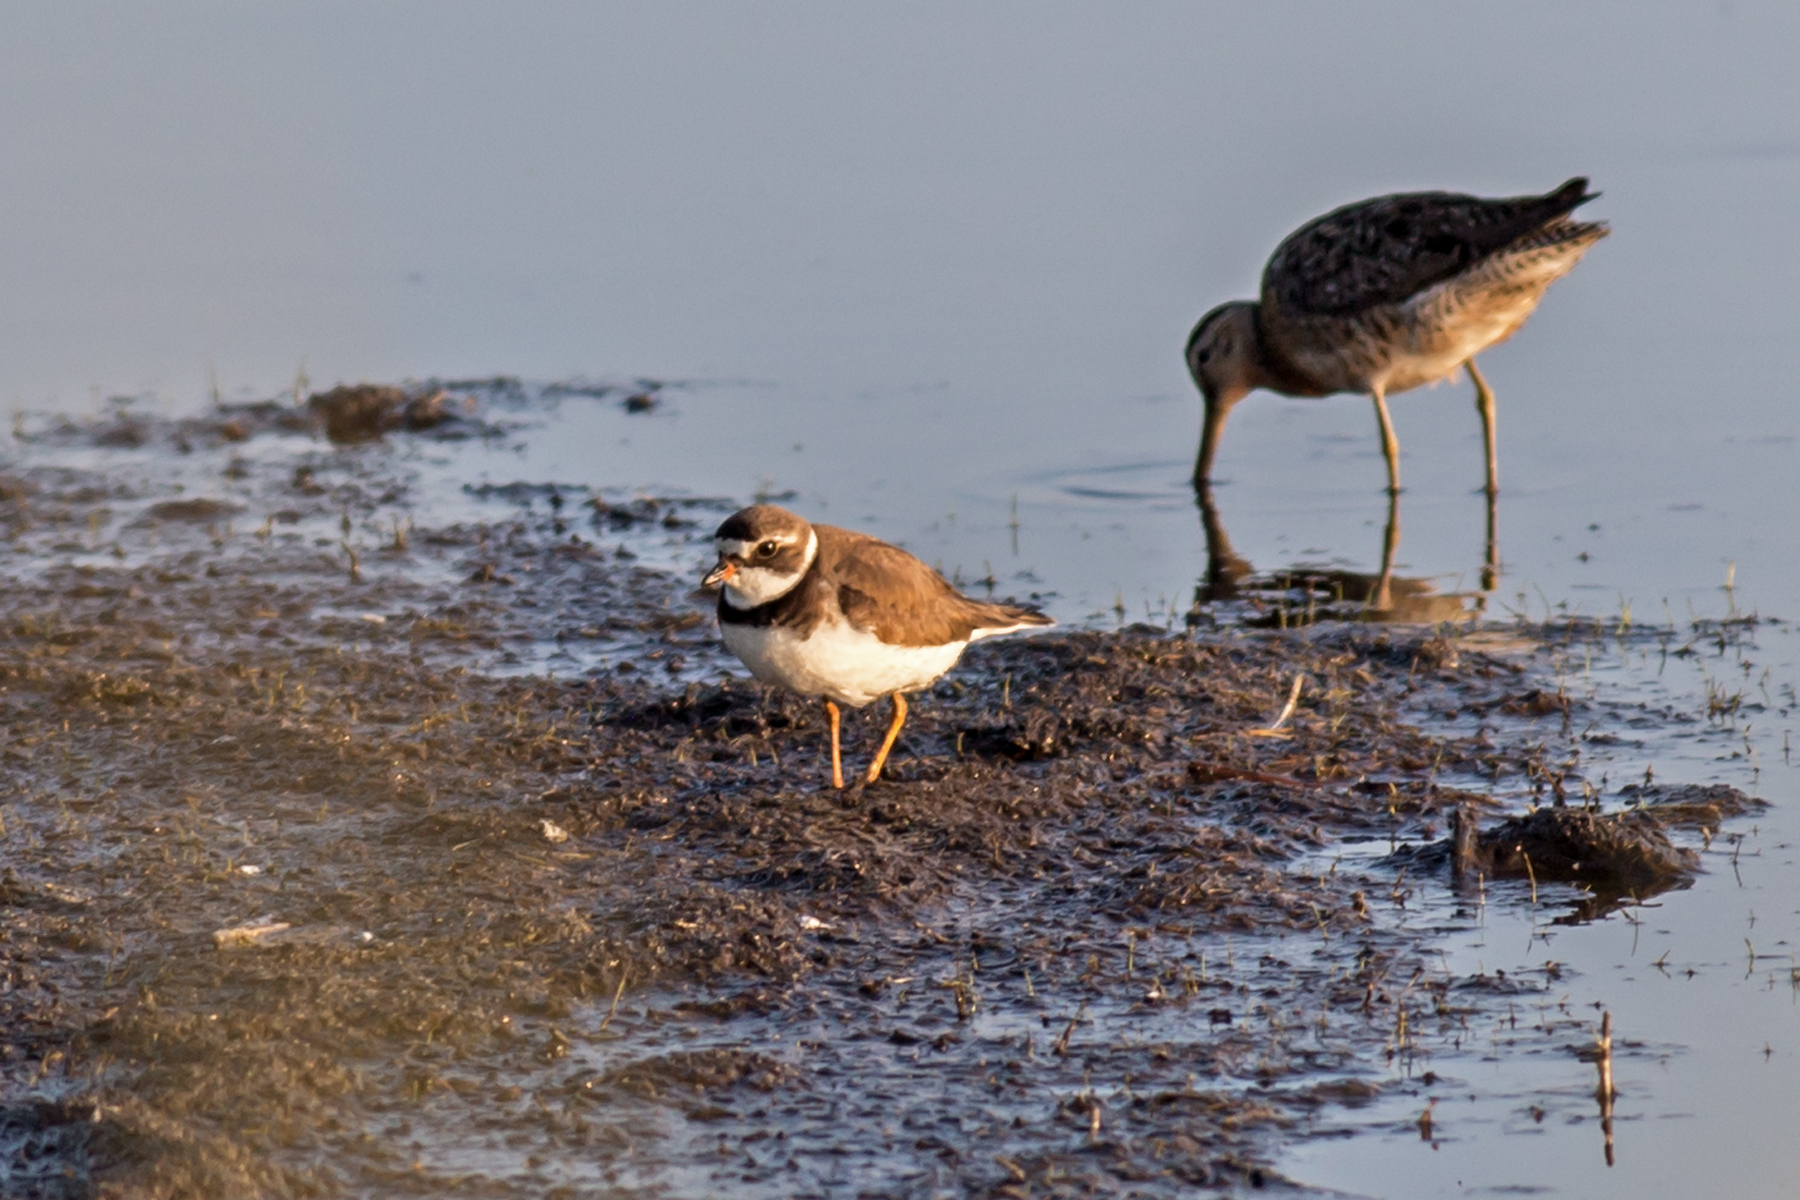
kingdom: Animalia
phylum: Chordata
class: Aves
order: Charadriiformes
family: Charadriidae
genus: Charadrius
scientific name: Charadrius semipalmatus
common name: Semipalmated plover
